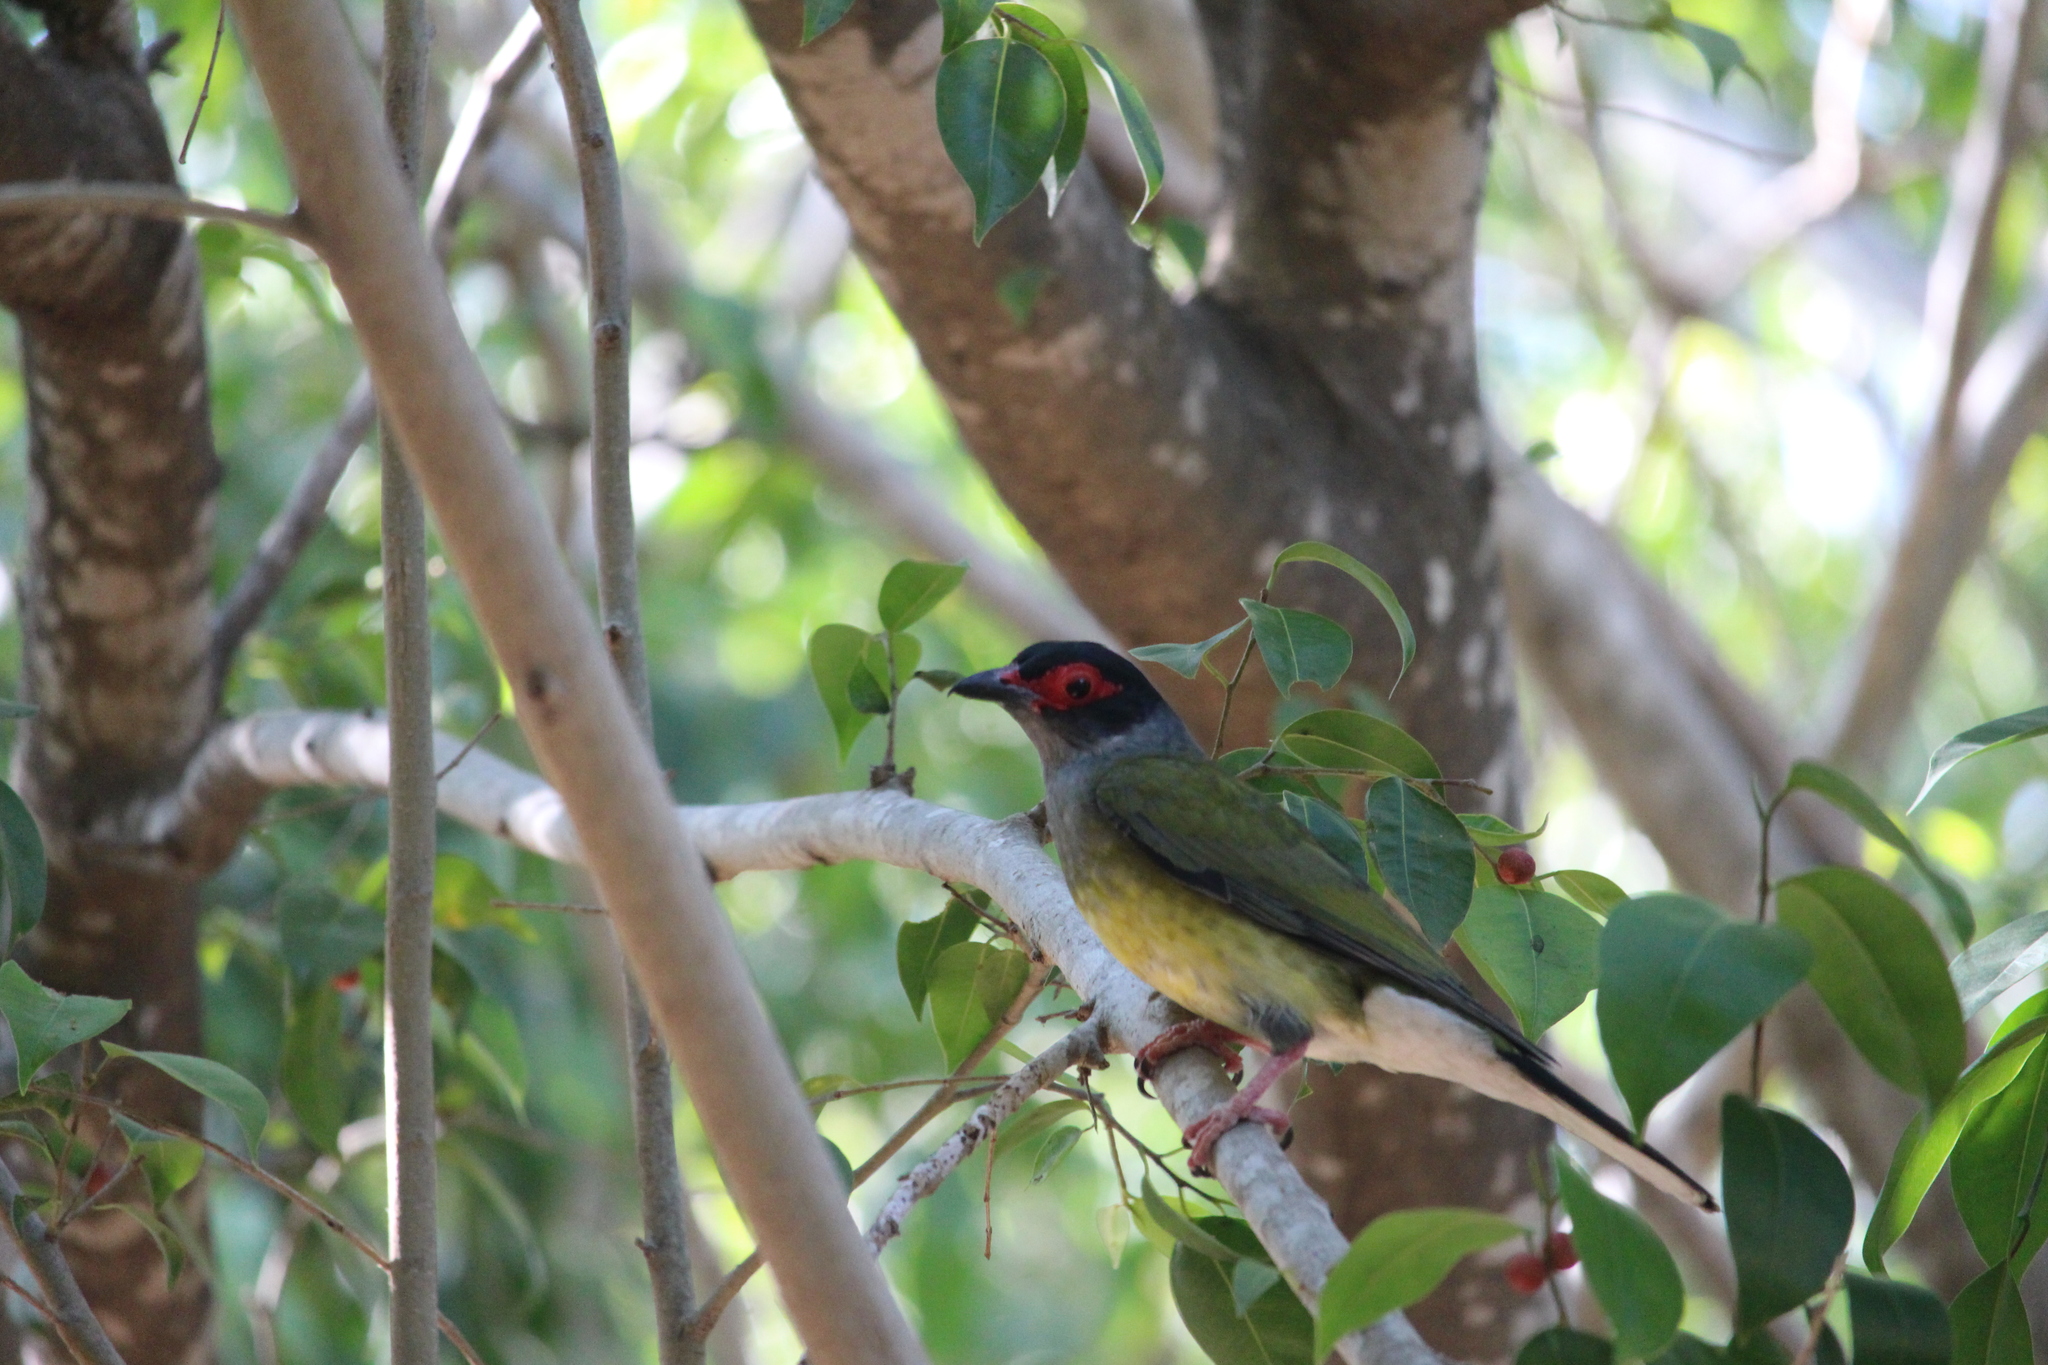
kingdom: Animalia
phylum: Chordata
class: Aves
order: Passeriformes
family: Oriolidae
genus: Sphecotheres
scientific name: Sphecotheres vieilloti
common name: Australasian figbird
